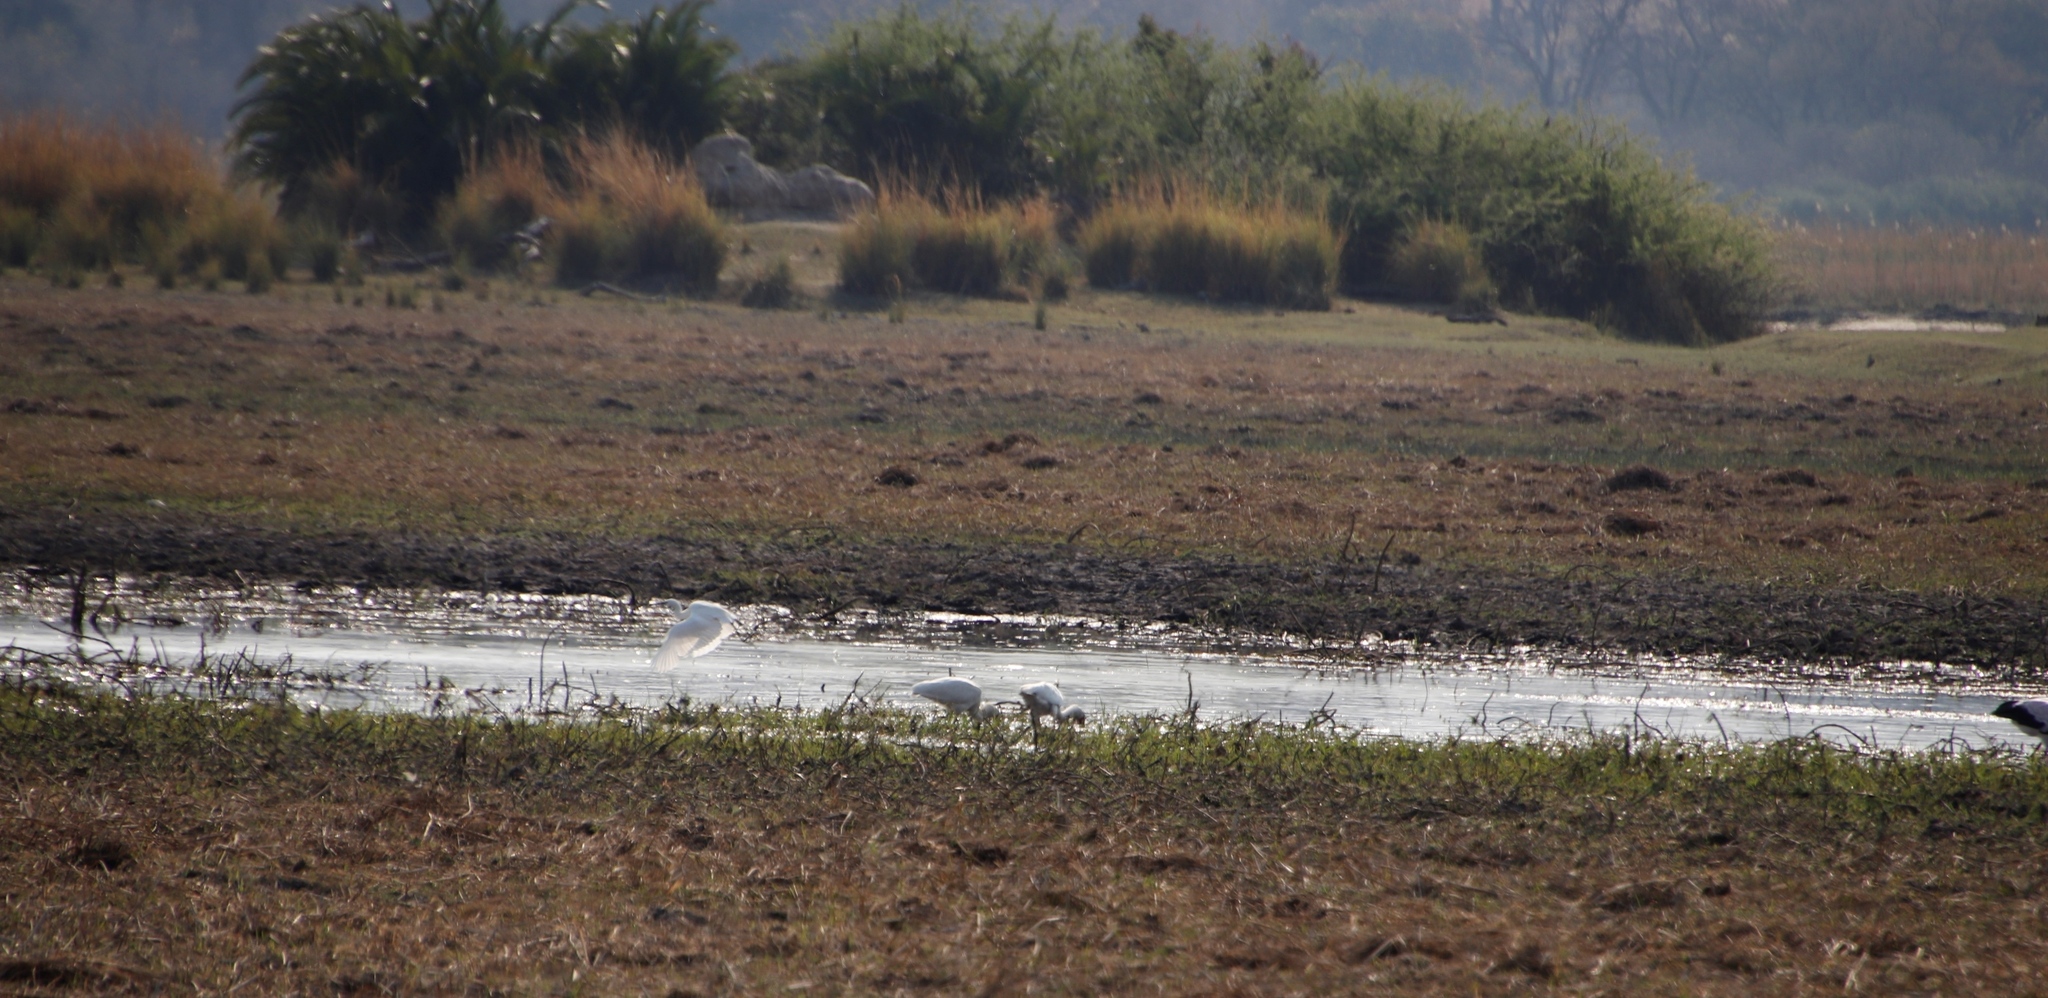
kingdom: Animalia
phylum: Chordata
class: Aves
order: Pelecaniformes
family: Ardeidae
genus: Ardea
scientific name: Ardea alba
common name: Great egret
